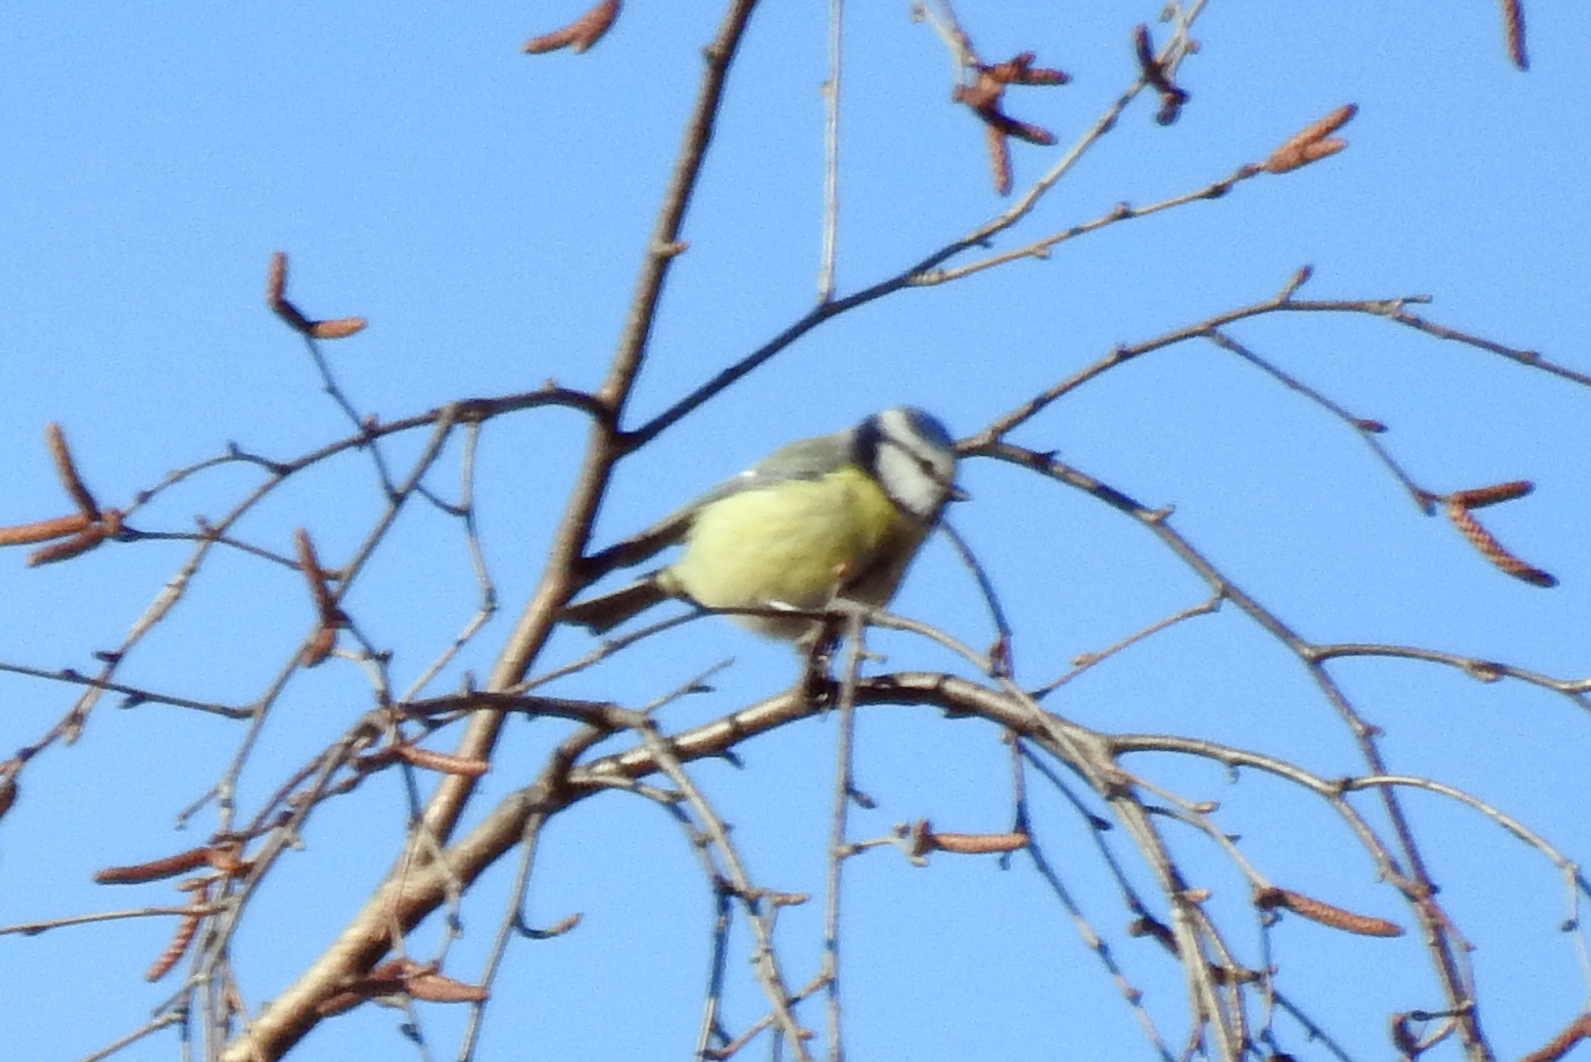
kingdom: Animalia
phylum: Chordata
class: Aves
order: Passeriformes
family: Paridae
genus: Cyanistes
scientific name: Cyanistes caeruleus
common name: Eurasian blue tit
